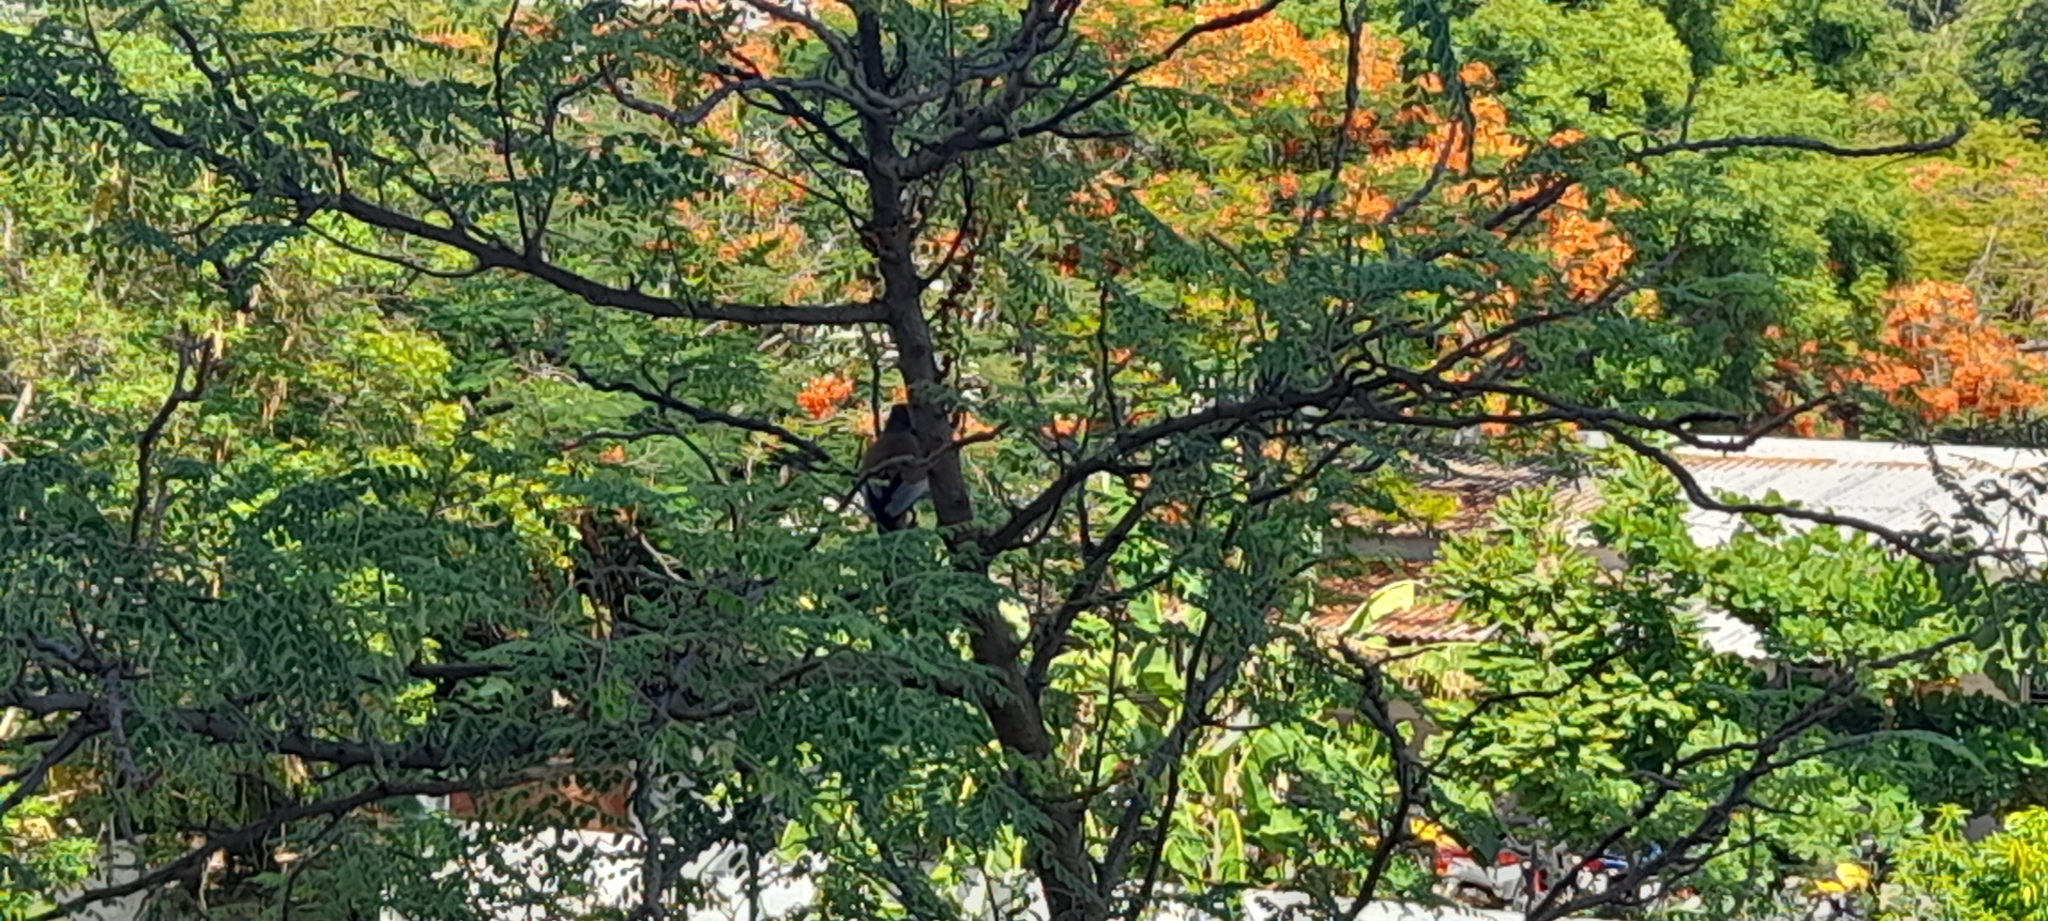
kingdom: Animalia
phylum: Chordata
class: Aves
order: Passeriformes
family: Corvidae
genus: Dendrocitta
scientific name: Dendrocitta vagabunda
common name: Rufous treepie
